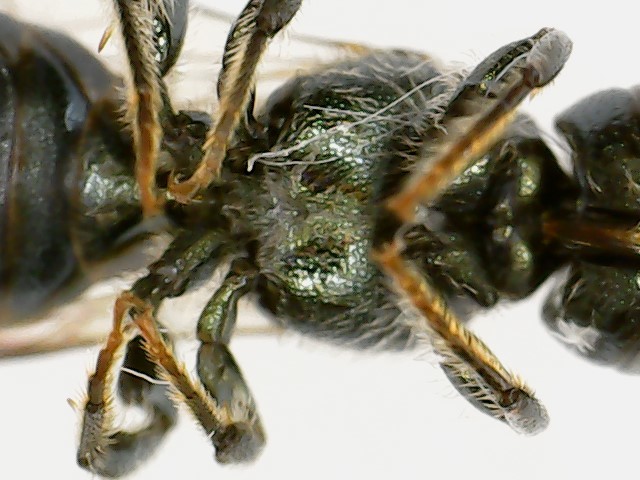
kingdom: Animalia
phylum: Arthropoda
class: Insecta
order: Hymenoptera
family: Apidae
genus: Zadontomerus
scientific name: Zadontomerus
